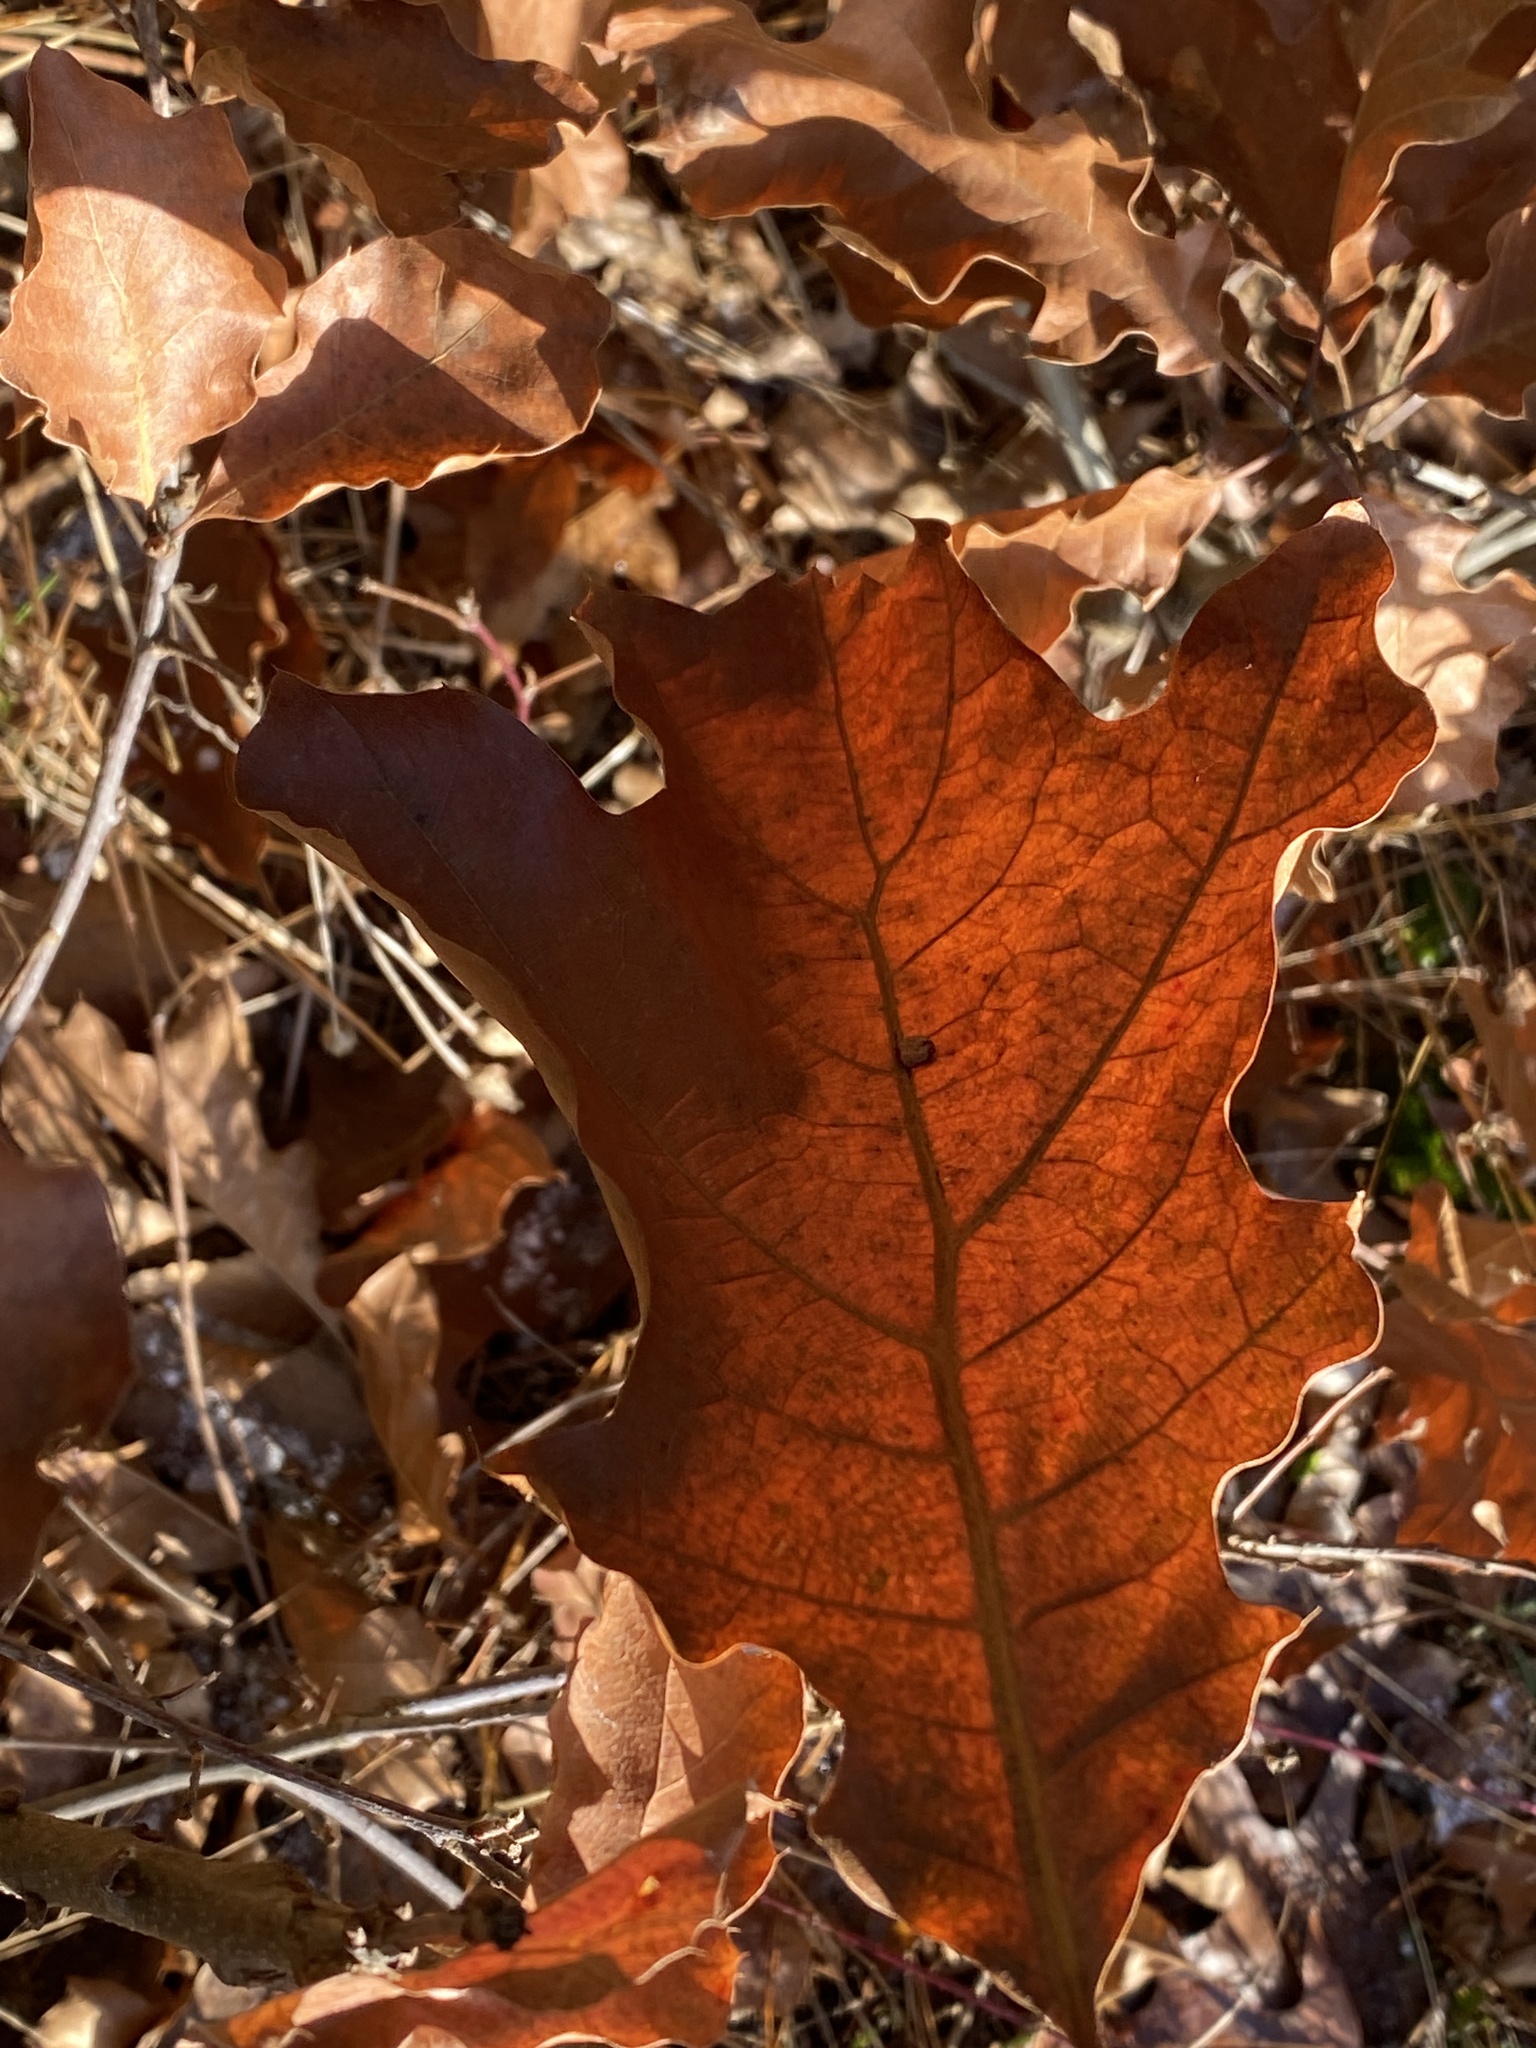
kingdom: Plantae
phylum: Tracheophyta
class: Magnoliopsida
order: Fagales
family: Fagaceae
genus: Quercus
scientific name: Quercus velutina
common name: Black oak
